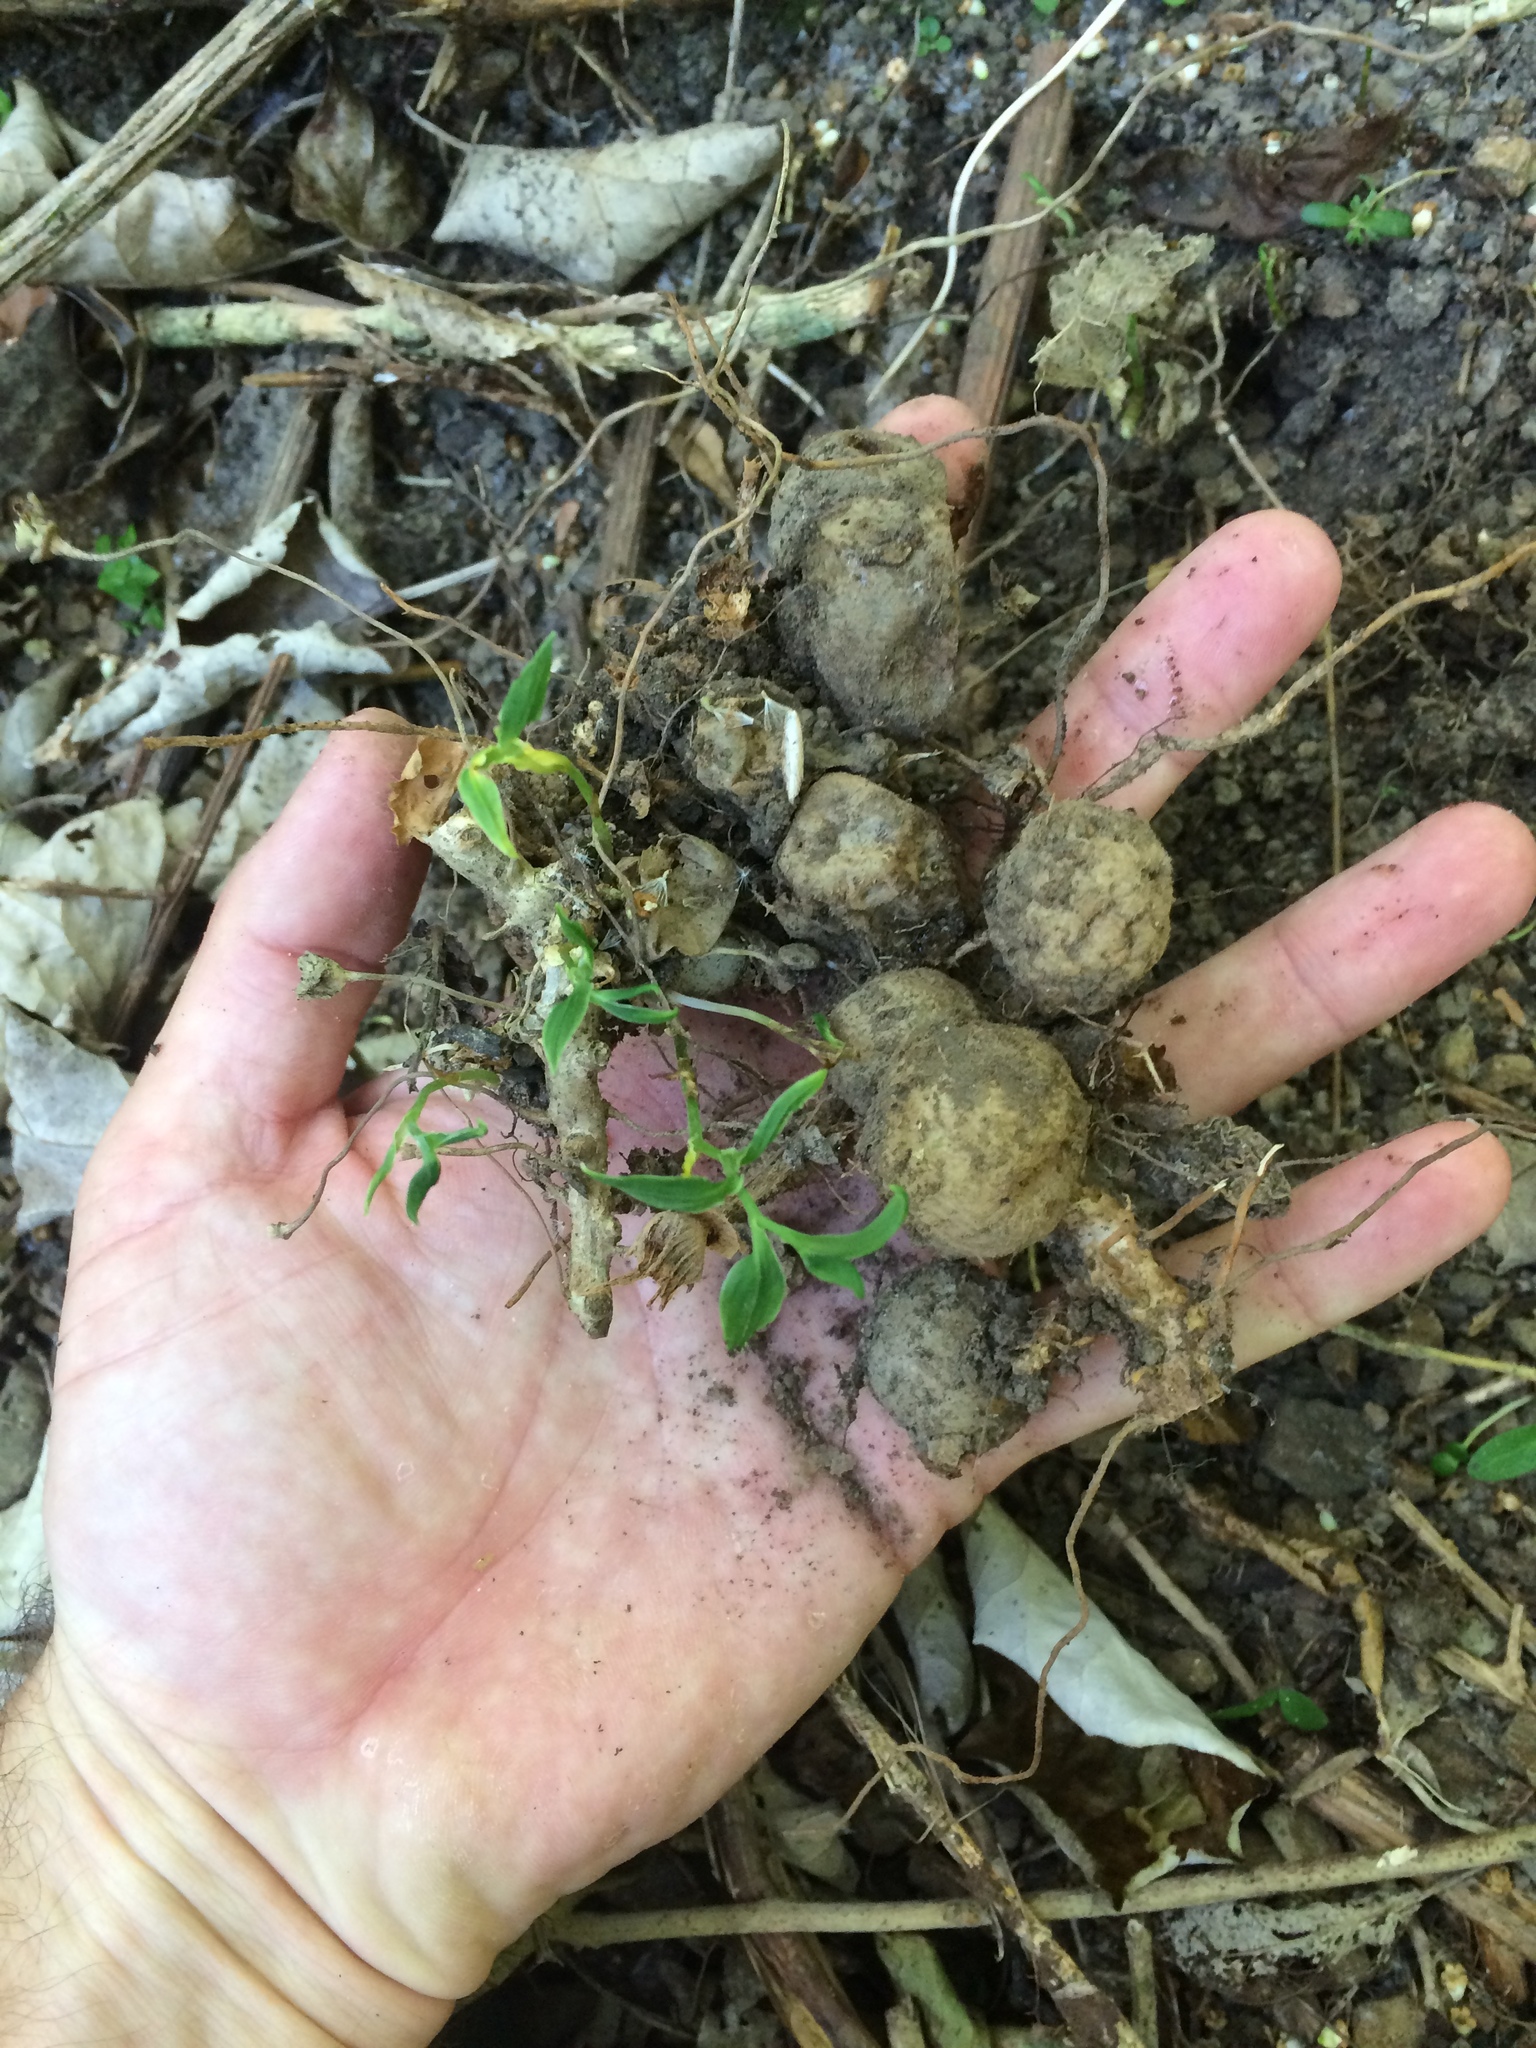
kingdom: Plantae
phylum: Tracheophyta
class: Liliopsida
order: Liliales
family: Alstroemeriaceae
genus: Bomarea
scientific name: Bomarea multiflora
